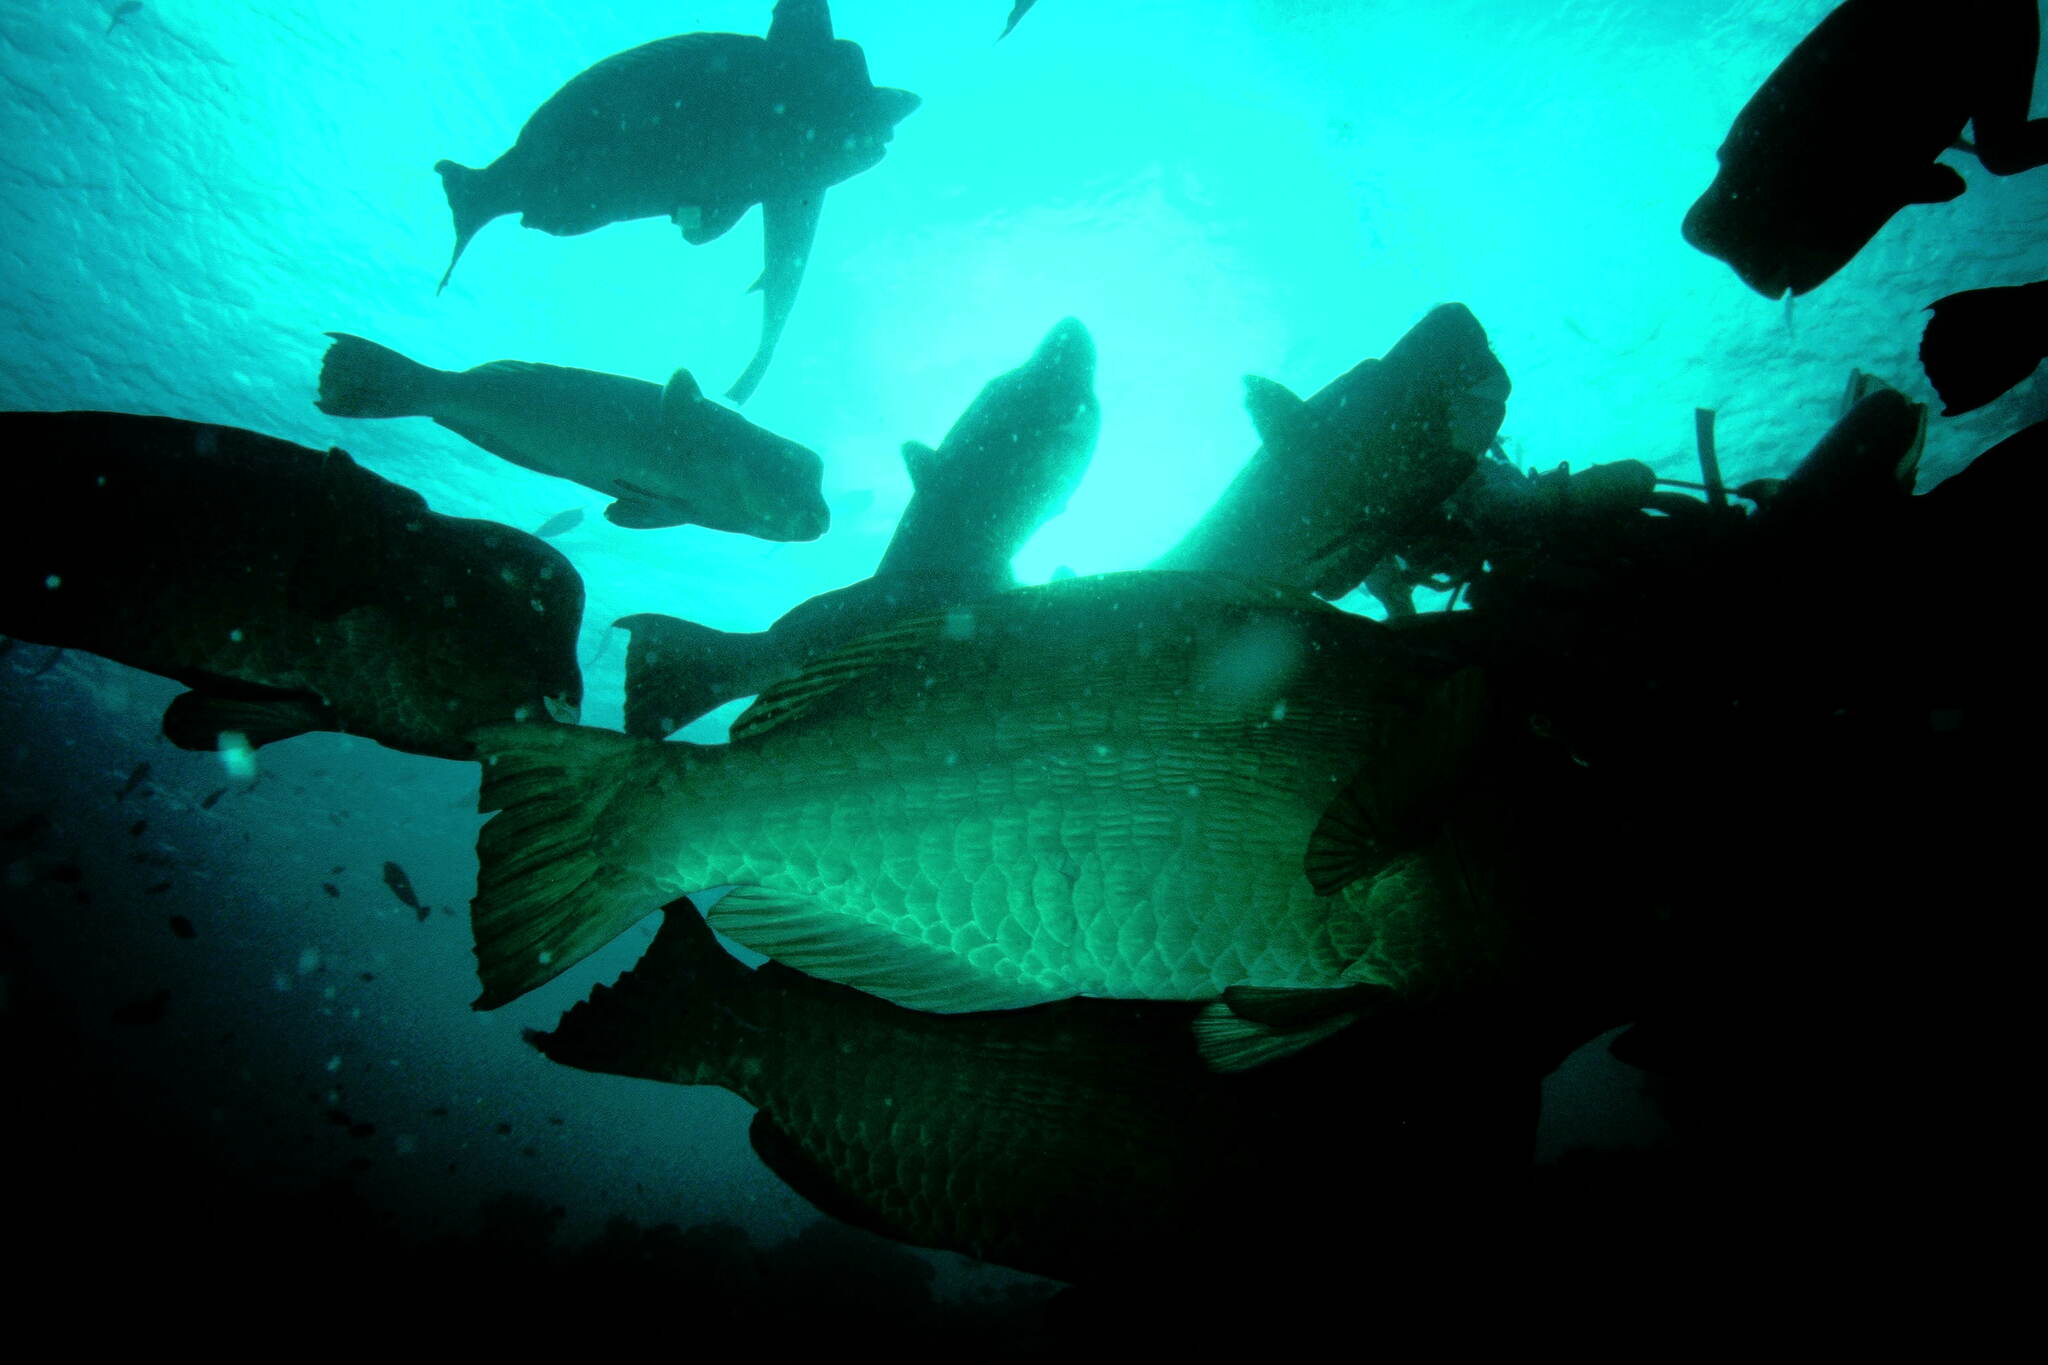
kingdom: Animalia
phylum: Chordata
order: Perciformes
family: Scaridae
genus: Bolbometopon
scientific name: Bolbometopon muricatum
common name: Humphead parrotfish
